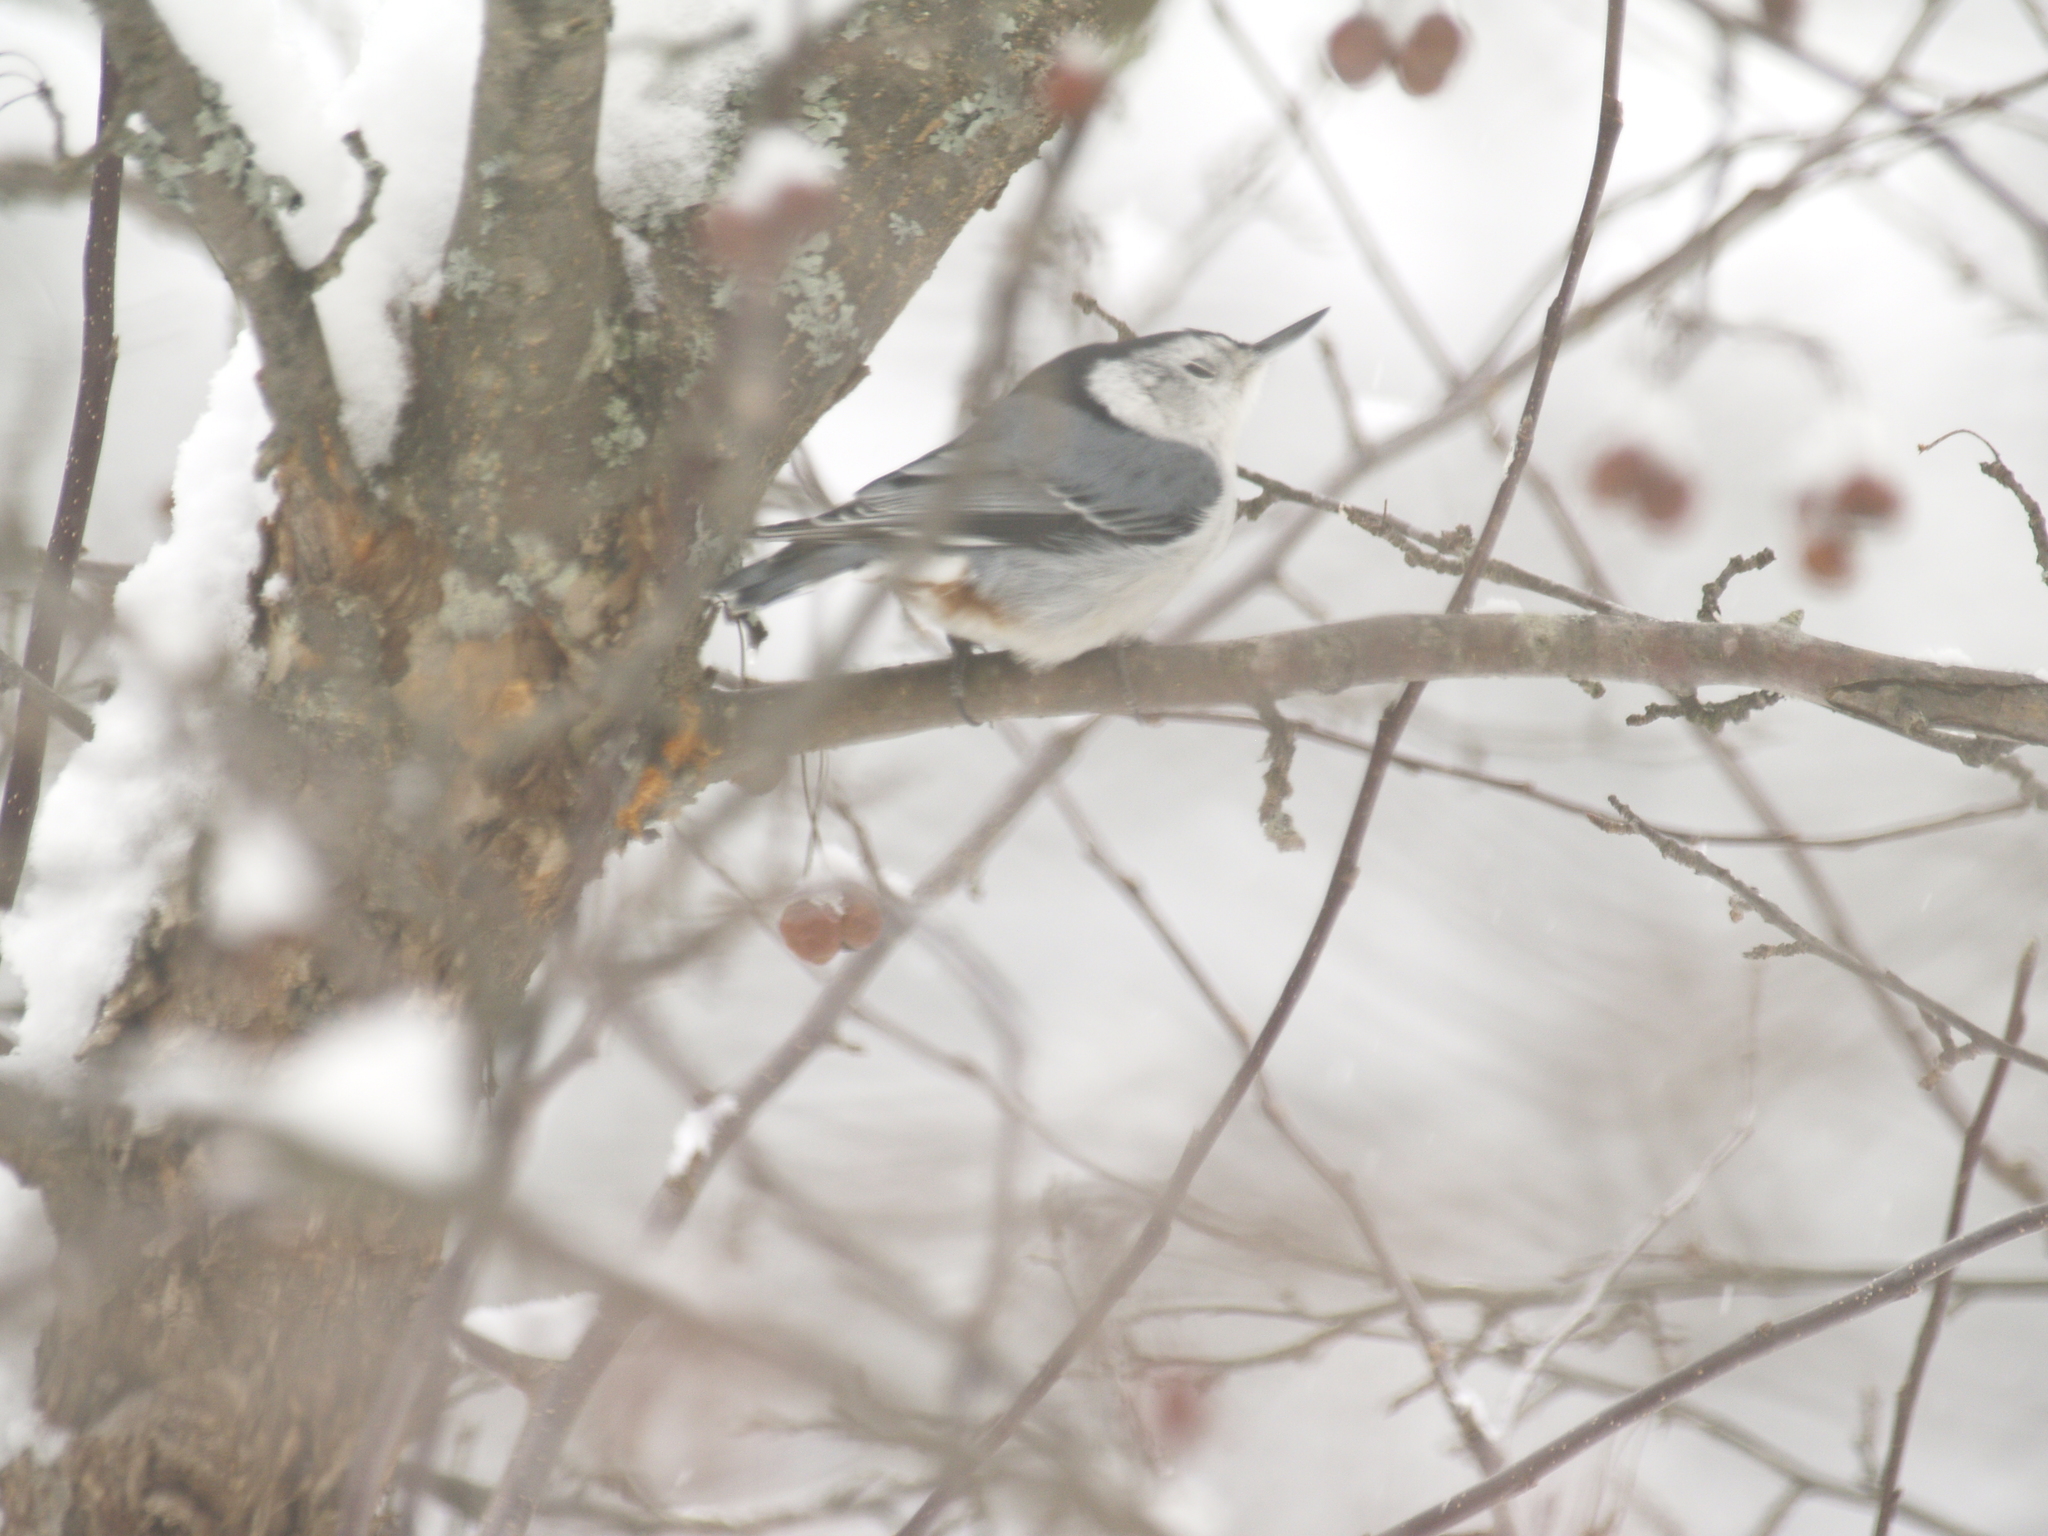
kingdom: Animalia
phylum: Chordata
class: Aves
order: Passeriformes
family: Sittidae
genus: Sitta
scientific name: Sitta carolinensis
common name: White-breasted nuthatch
